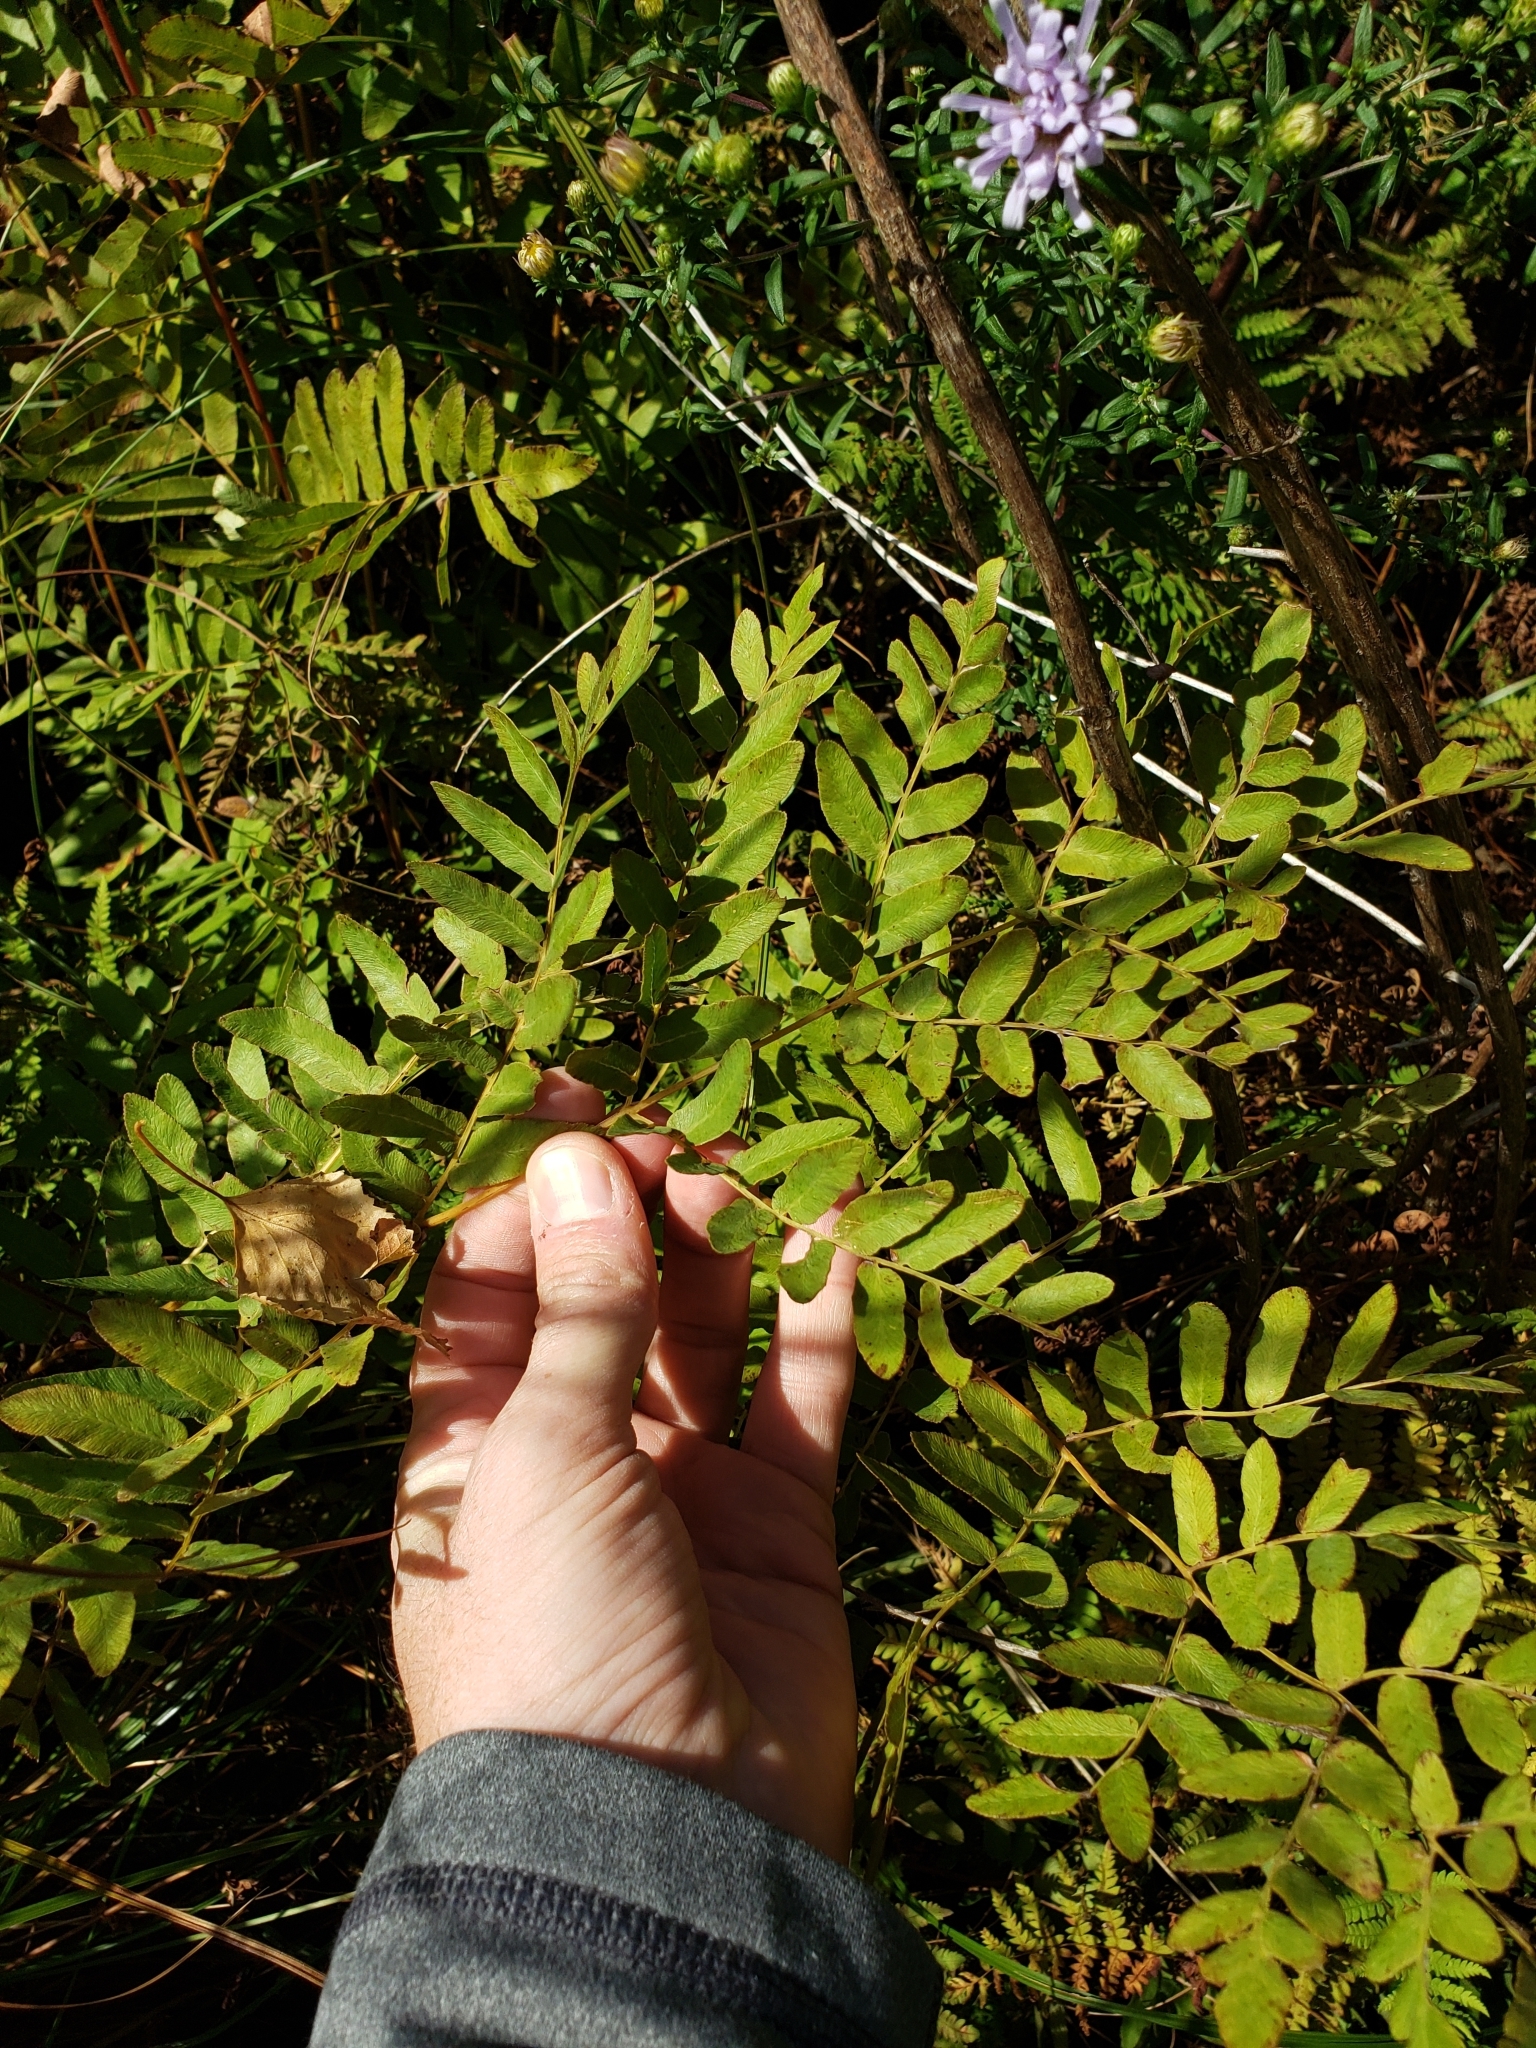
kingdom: Plantae
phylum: Tracheophyta
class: Polypodiopsida
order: Osmundales
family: Osmundaceae
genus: Osmunda
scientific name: Osmunda spectabilis
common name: American royal fern
